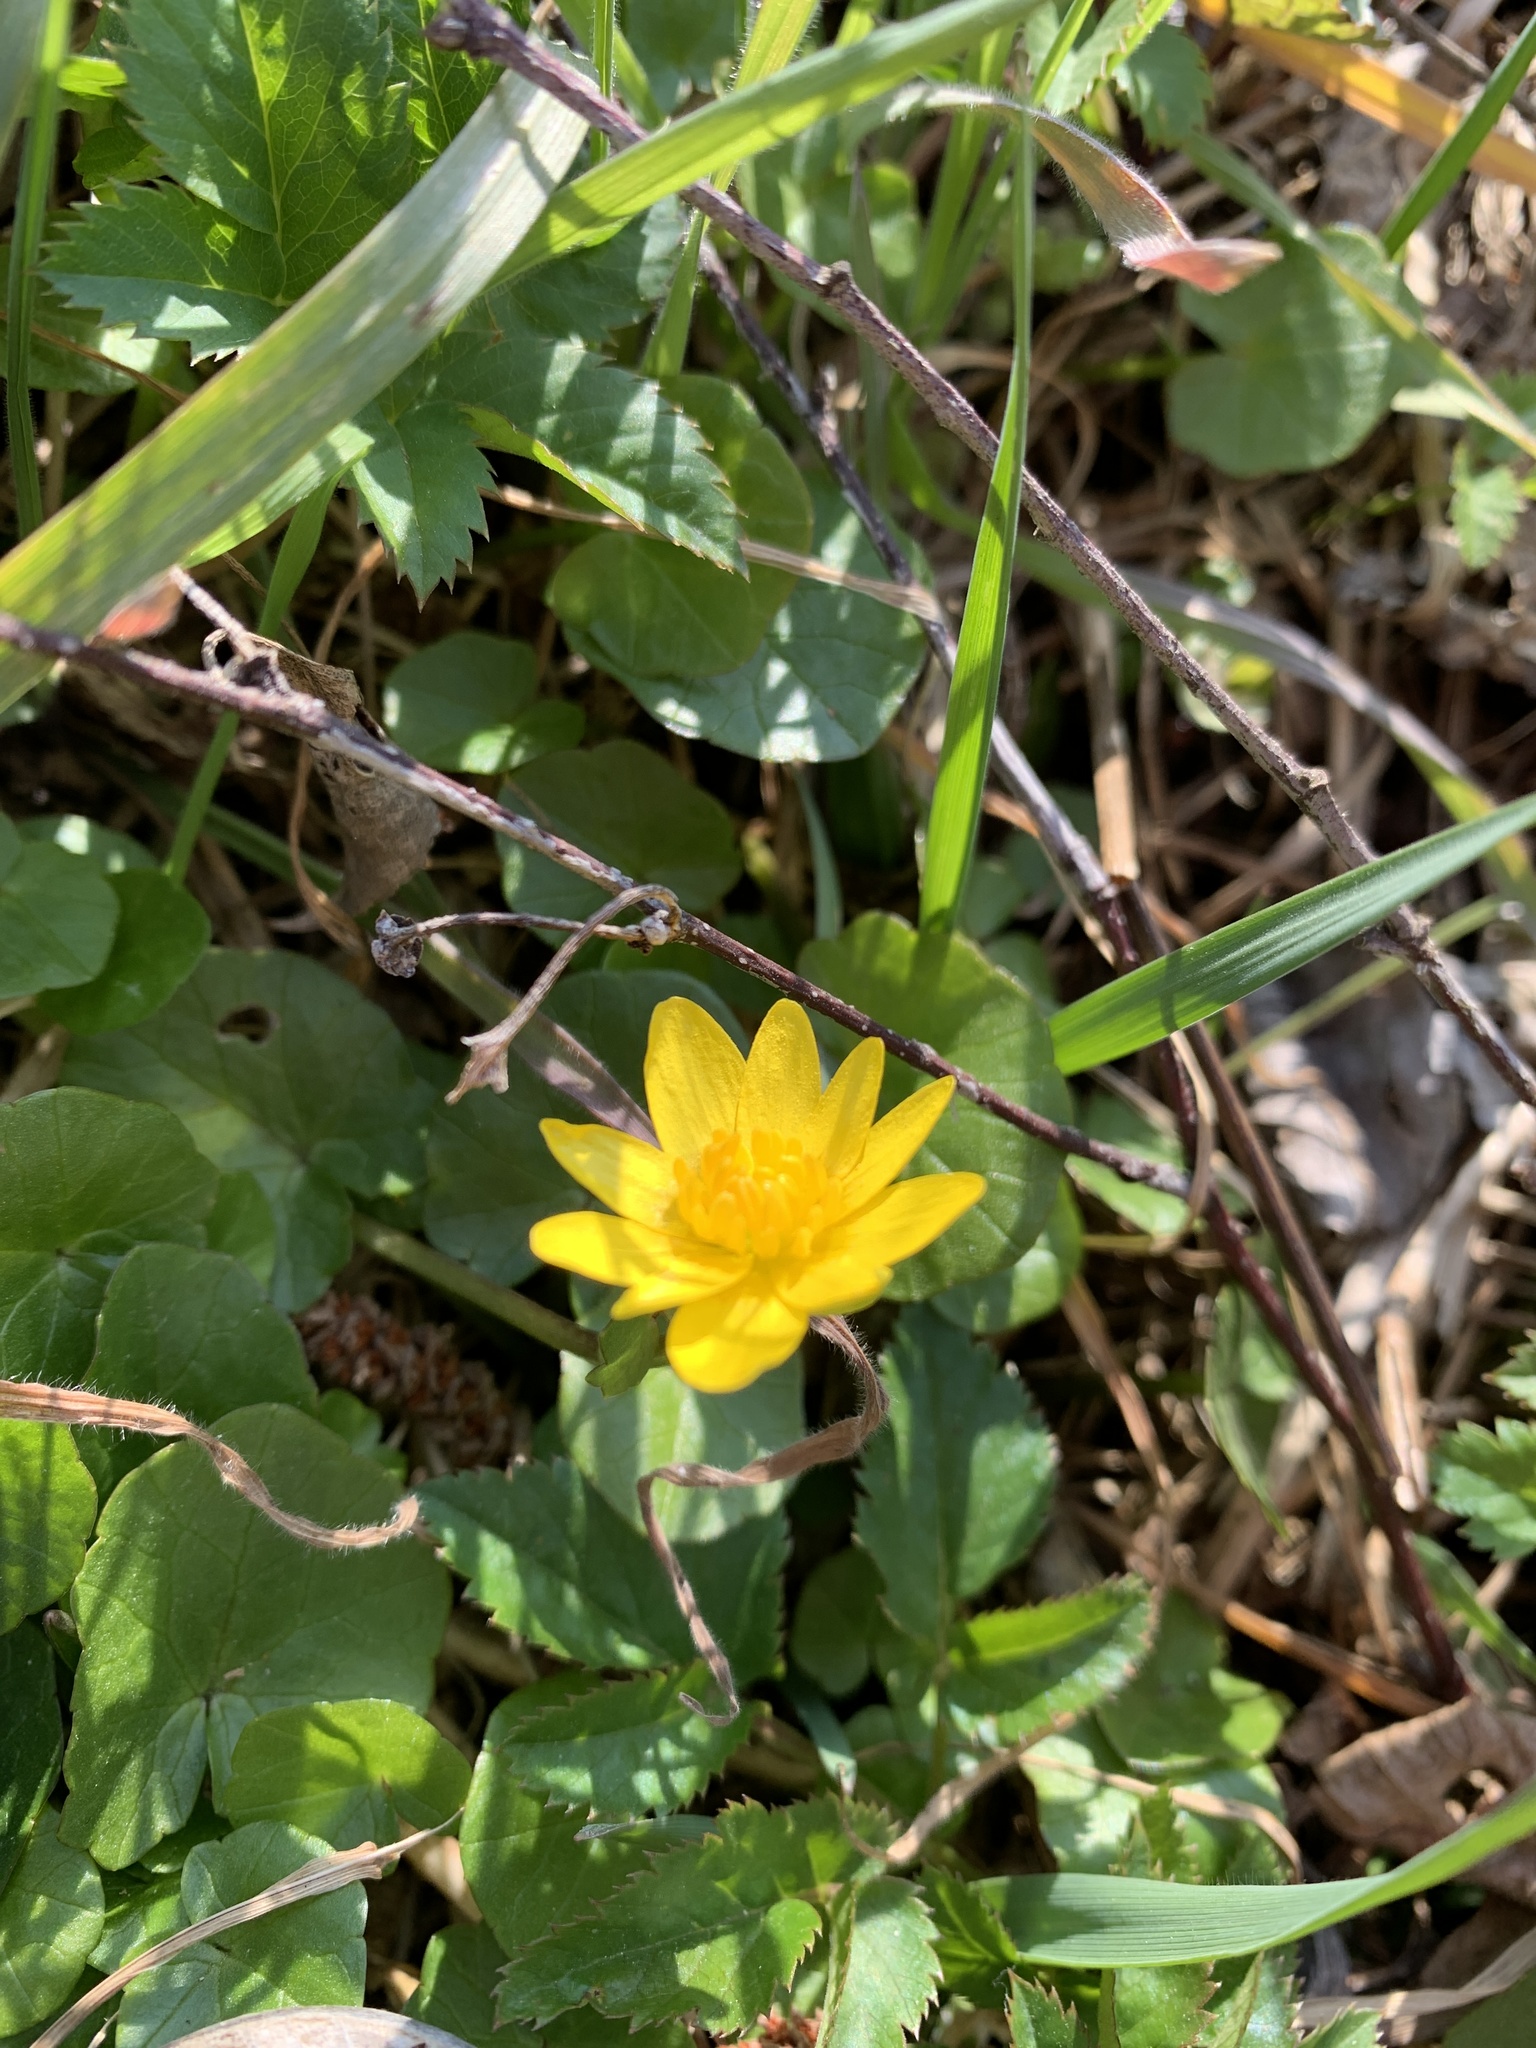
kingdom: Plantae
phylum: Tracheophyta
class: Magnoliopsida
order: Ranunculales
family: Ranunculaceae
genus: Ficaria
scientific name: Ficaria verna
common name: Lesser celandine
